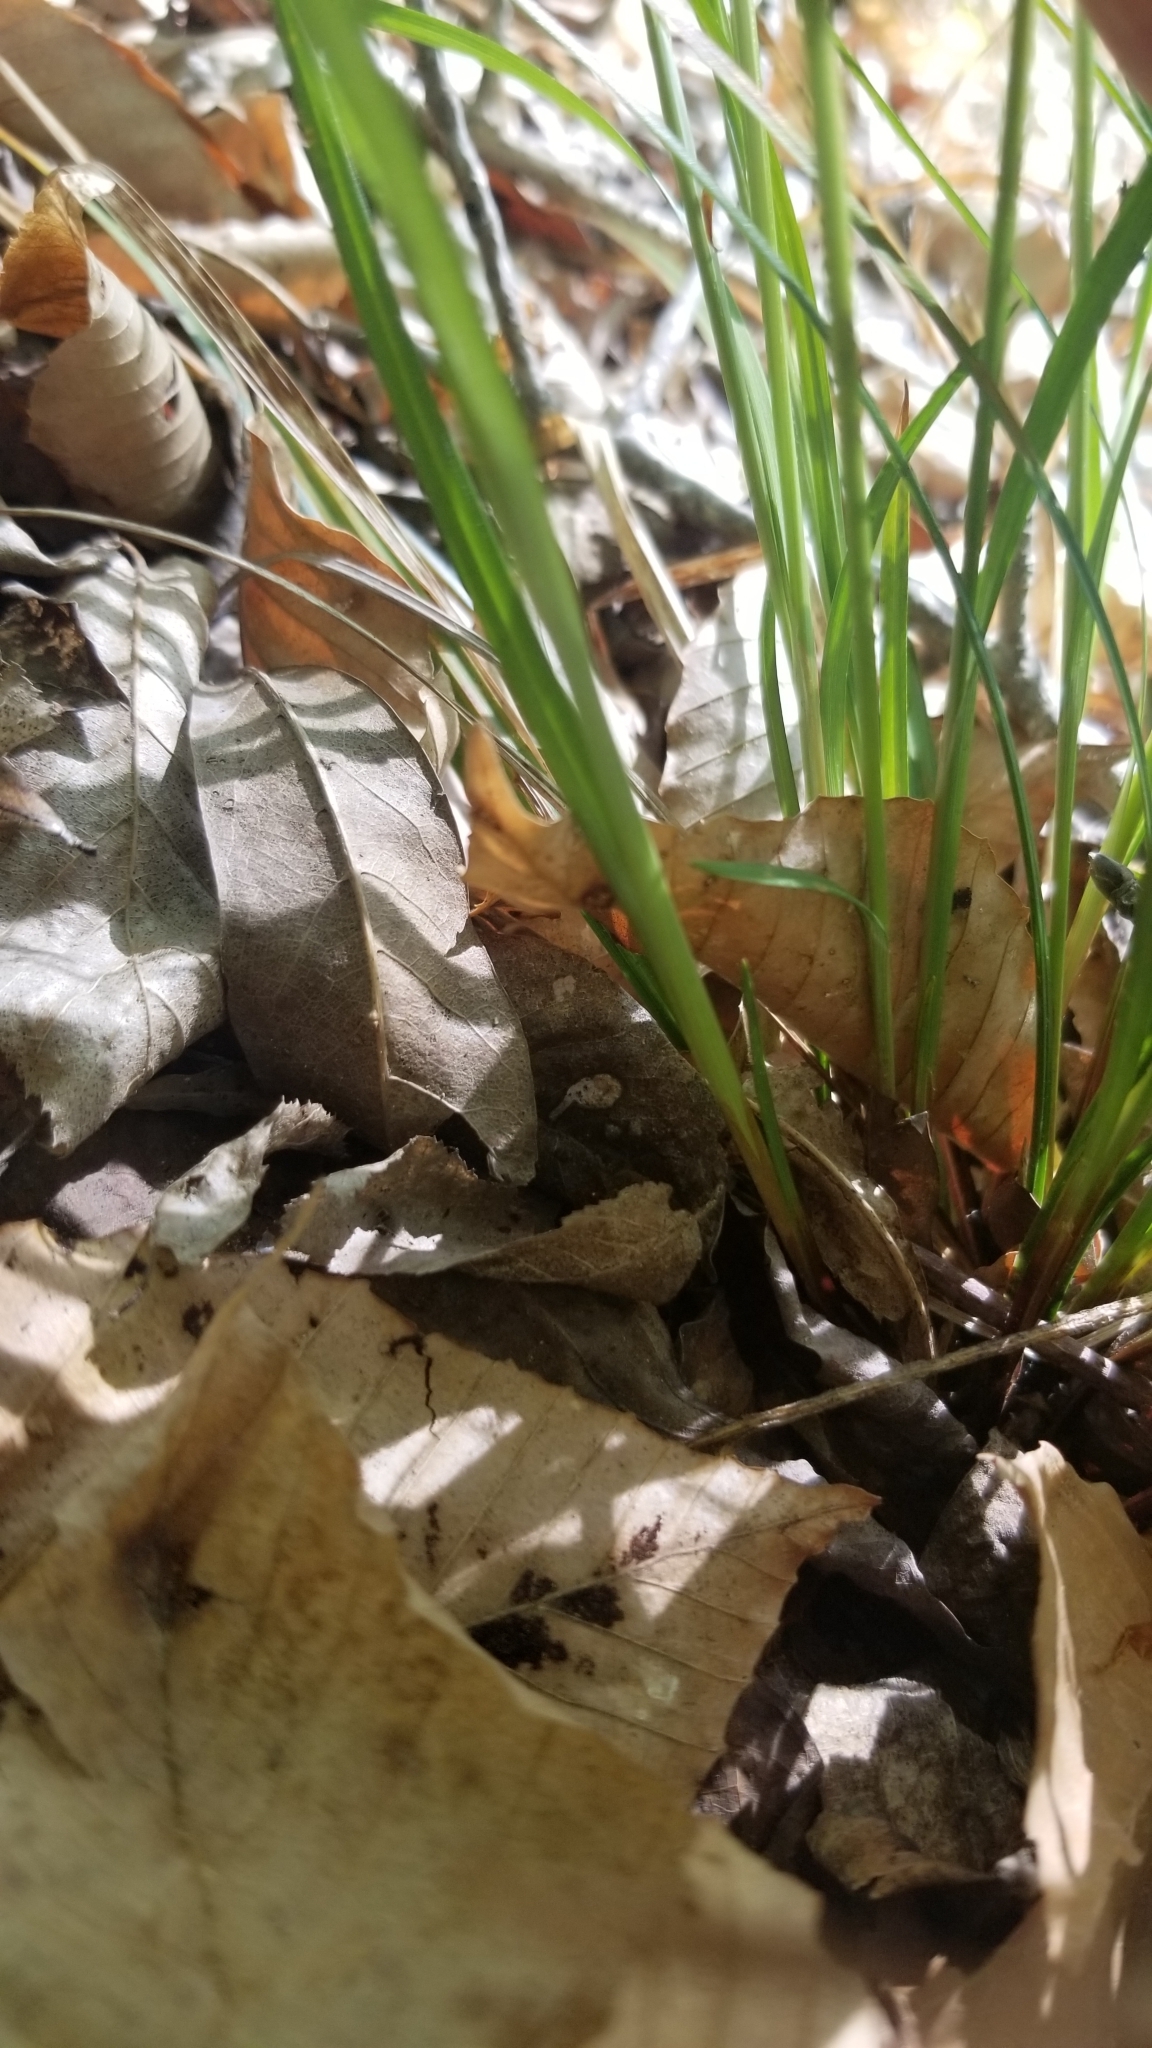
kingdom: Plantae
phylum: Tracheophyta
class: Liliopsida
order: Poales
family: Cyperaceae
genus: Carex
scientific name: Carex debilis
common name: White-edge sedge
